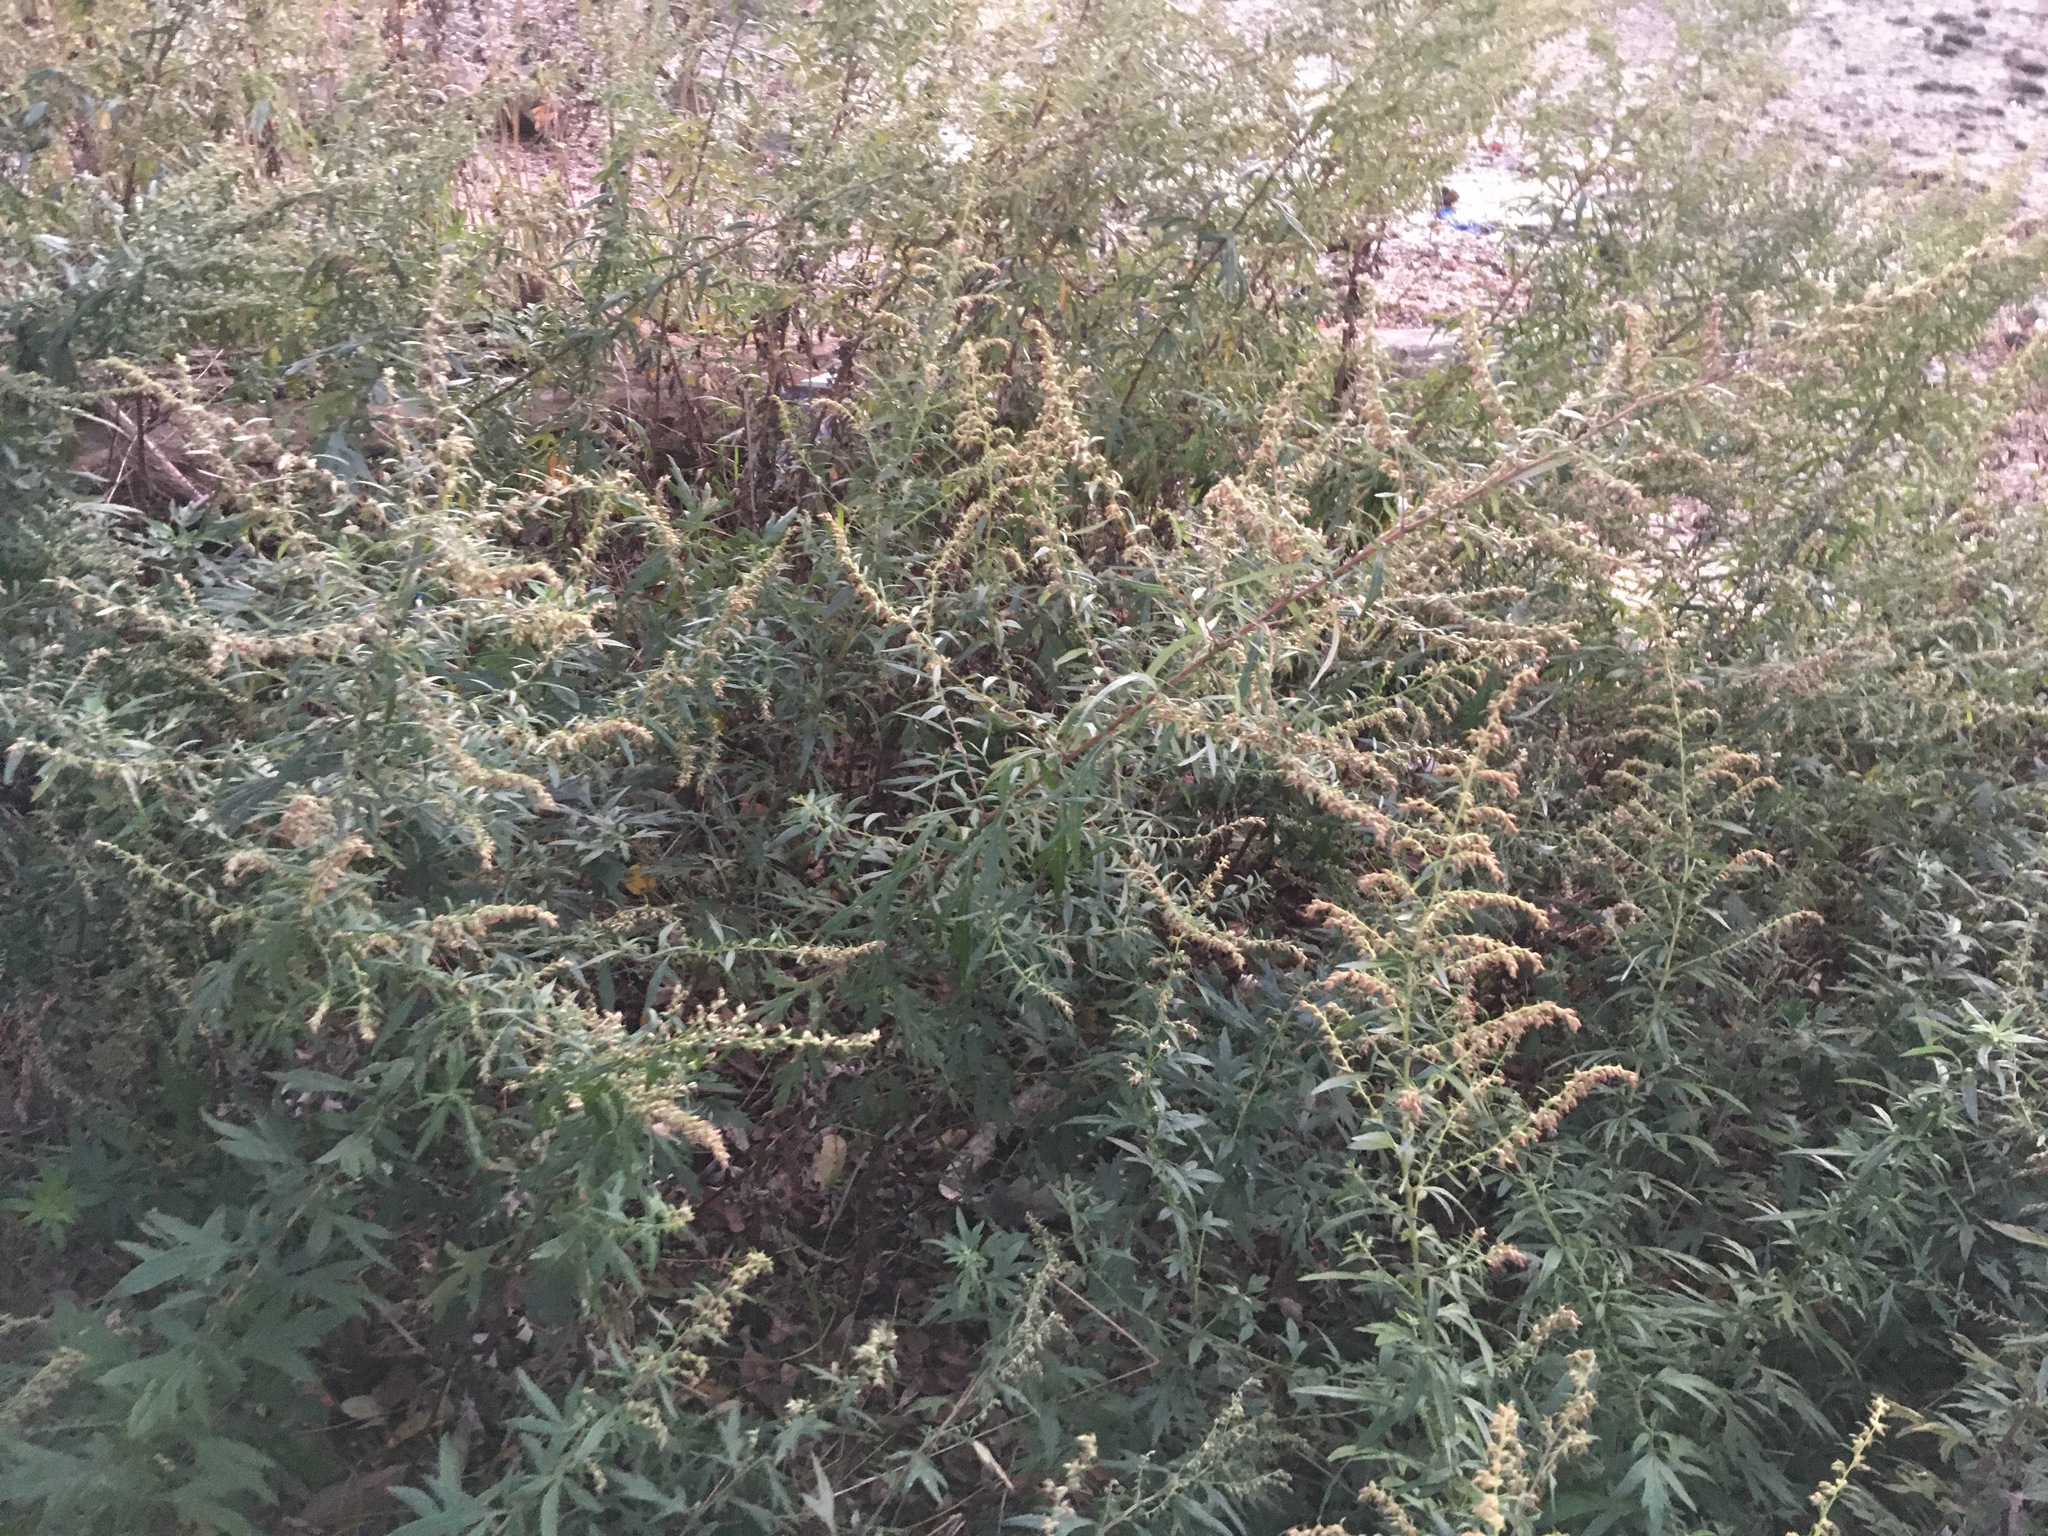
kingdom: Plantae
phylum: Tracheophyta
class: Magnoliopsida
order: Asterales
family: Asteraceae
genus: Artemisia
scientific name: Artemisia vulgaris
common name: Mugwort
